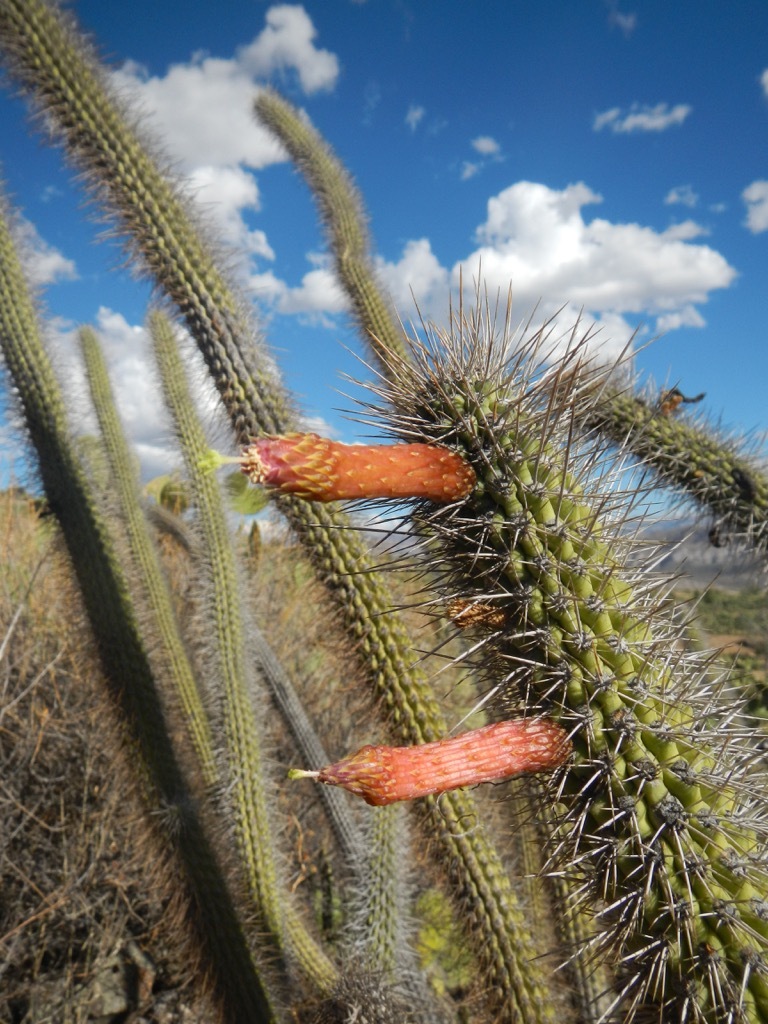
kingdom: Plantae
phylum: Tracheophyta
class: Magnoliopsida
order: Caryophyllales
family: Cactaceae
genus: Cleistocactus
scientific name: Cleistocactus pungens
